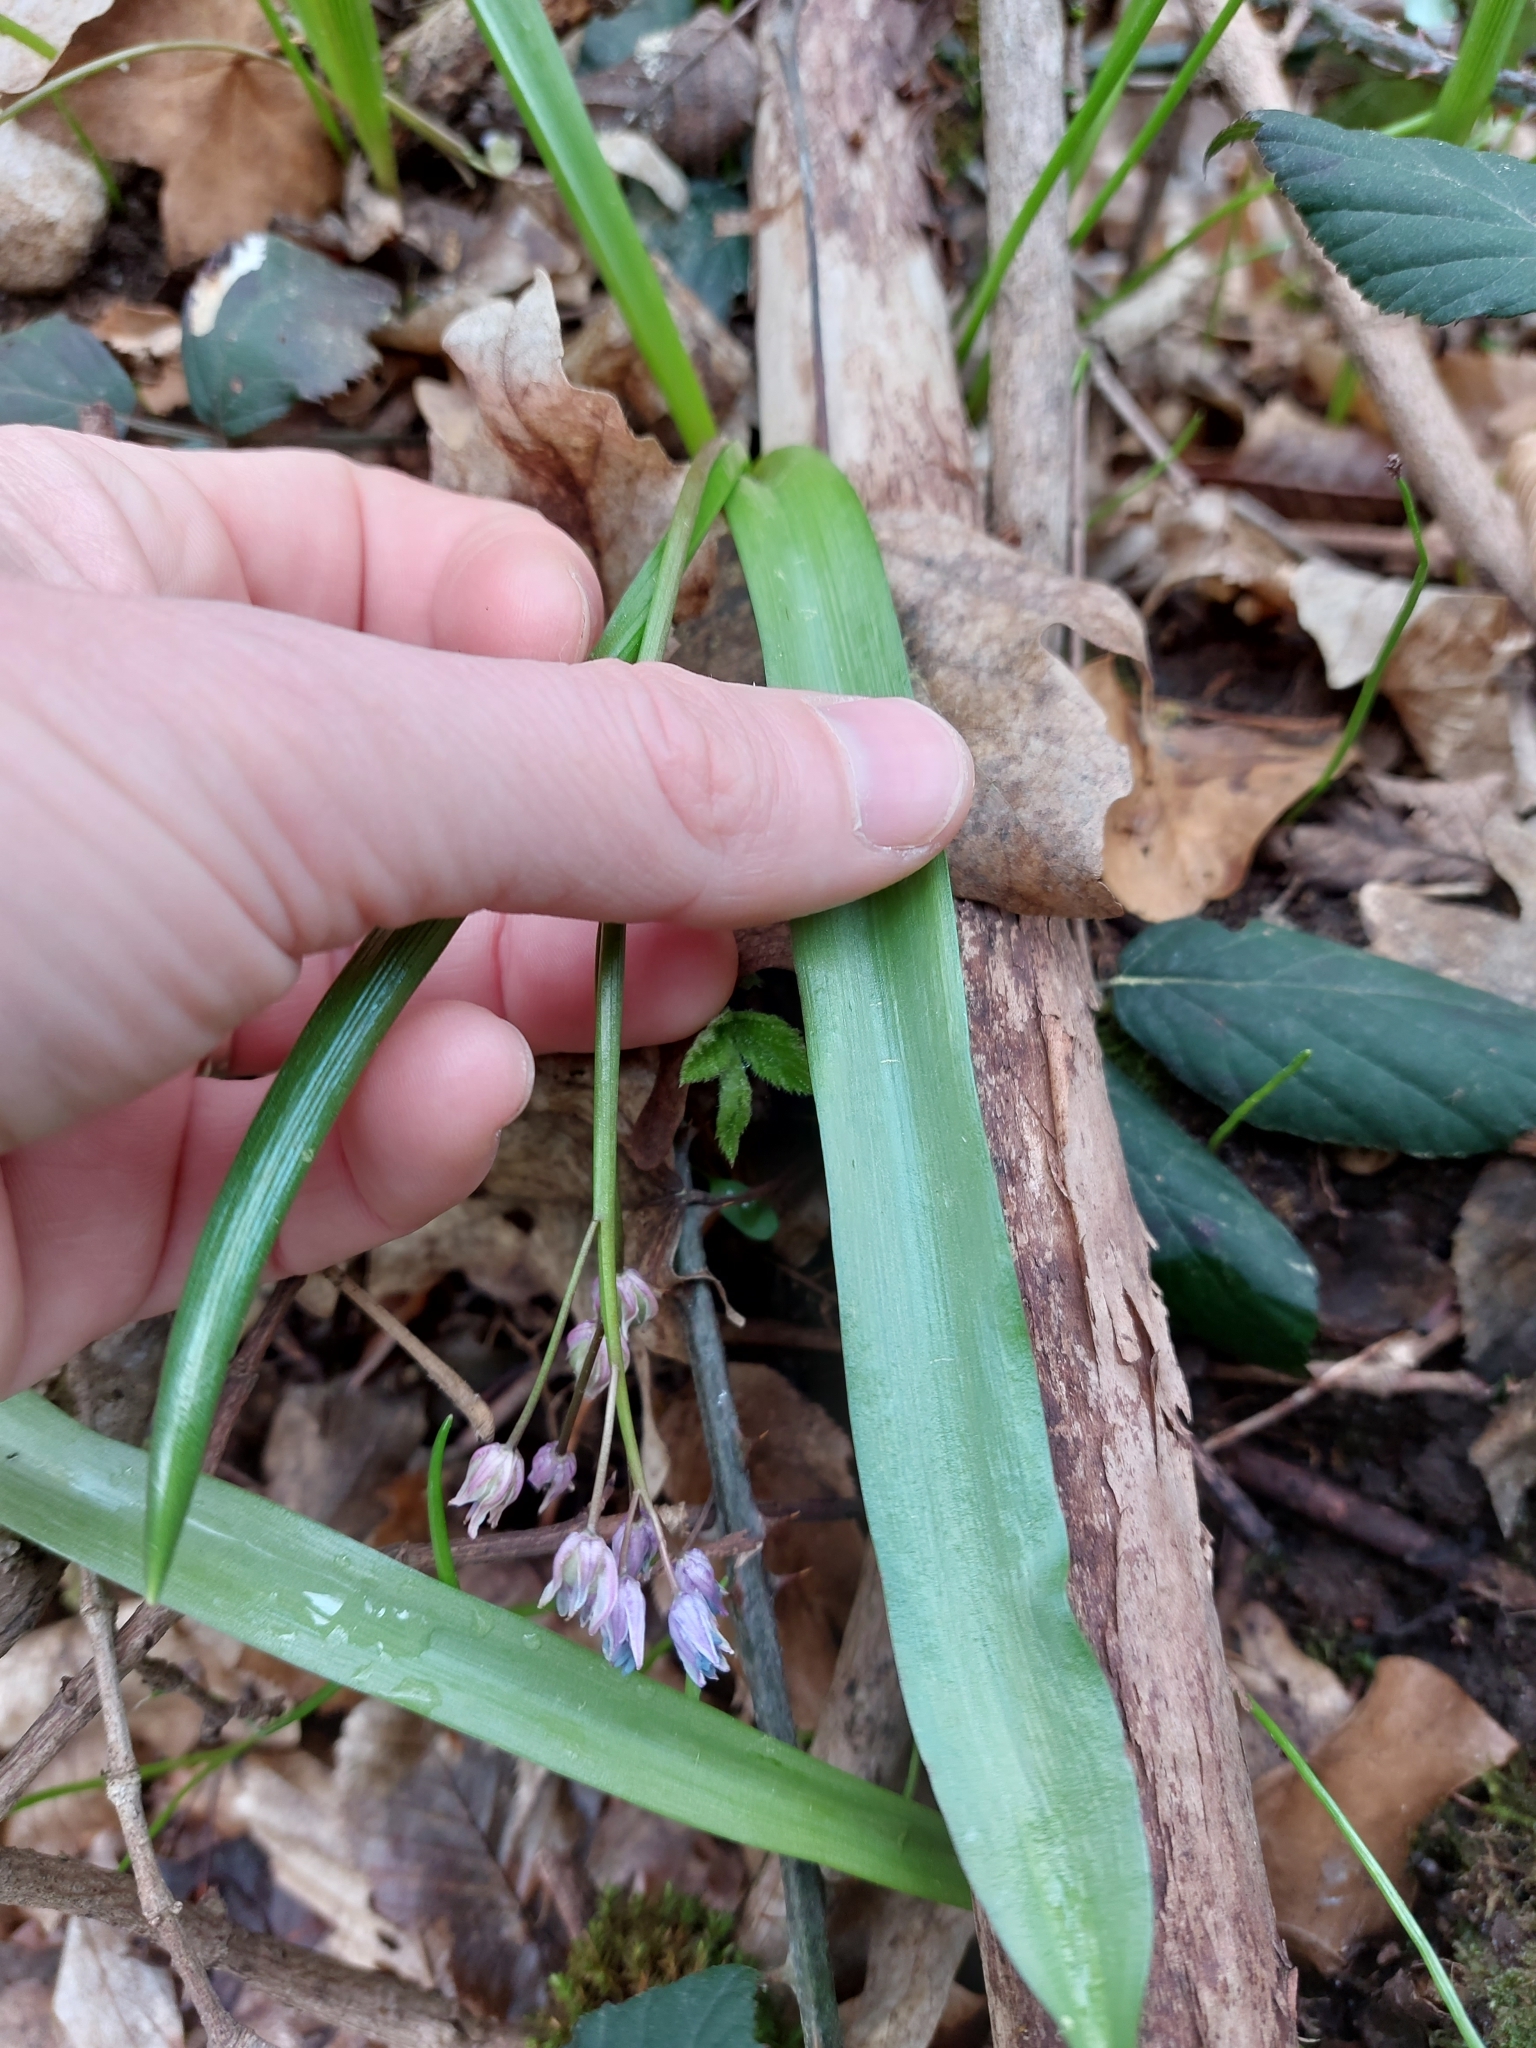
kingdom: Plantae
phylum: Tracheophyta
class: Liliopsida
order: Asparagales
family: Asparagaceae
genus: Scilla
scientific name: Scilla bifolia
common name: Alpine squill
